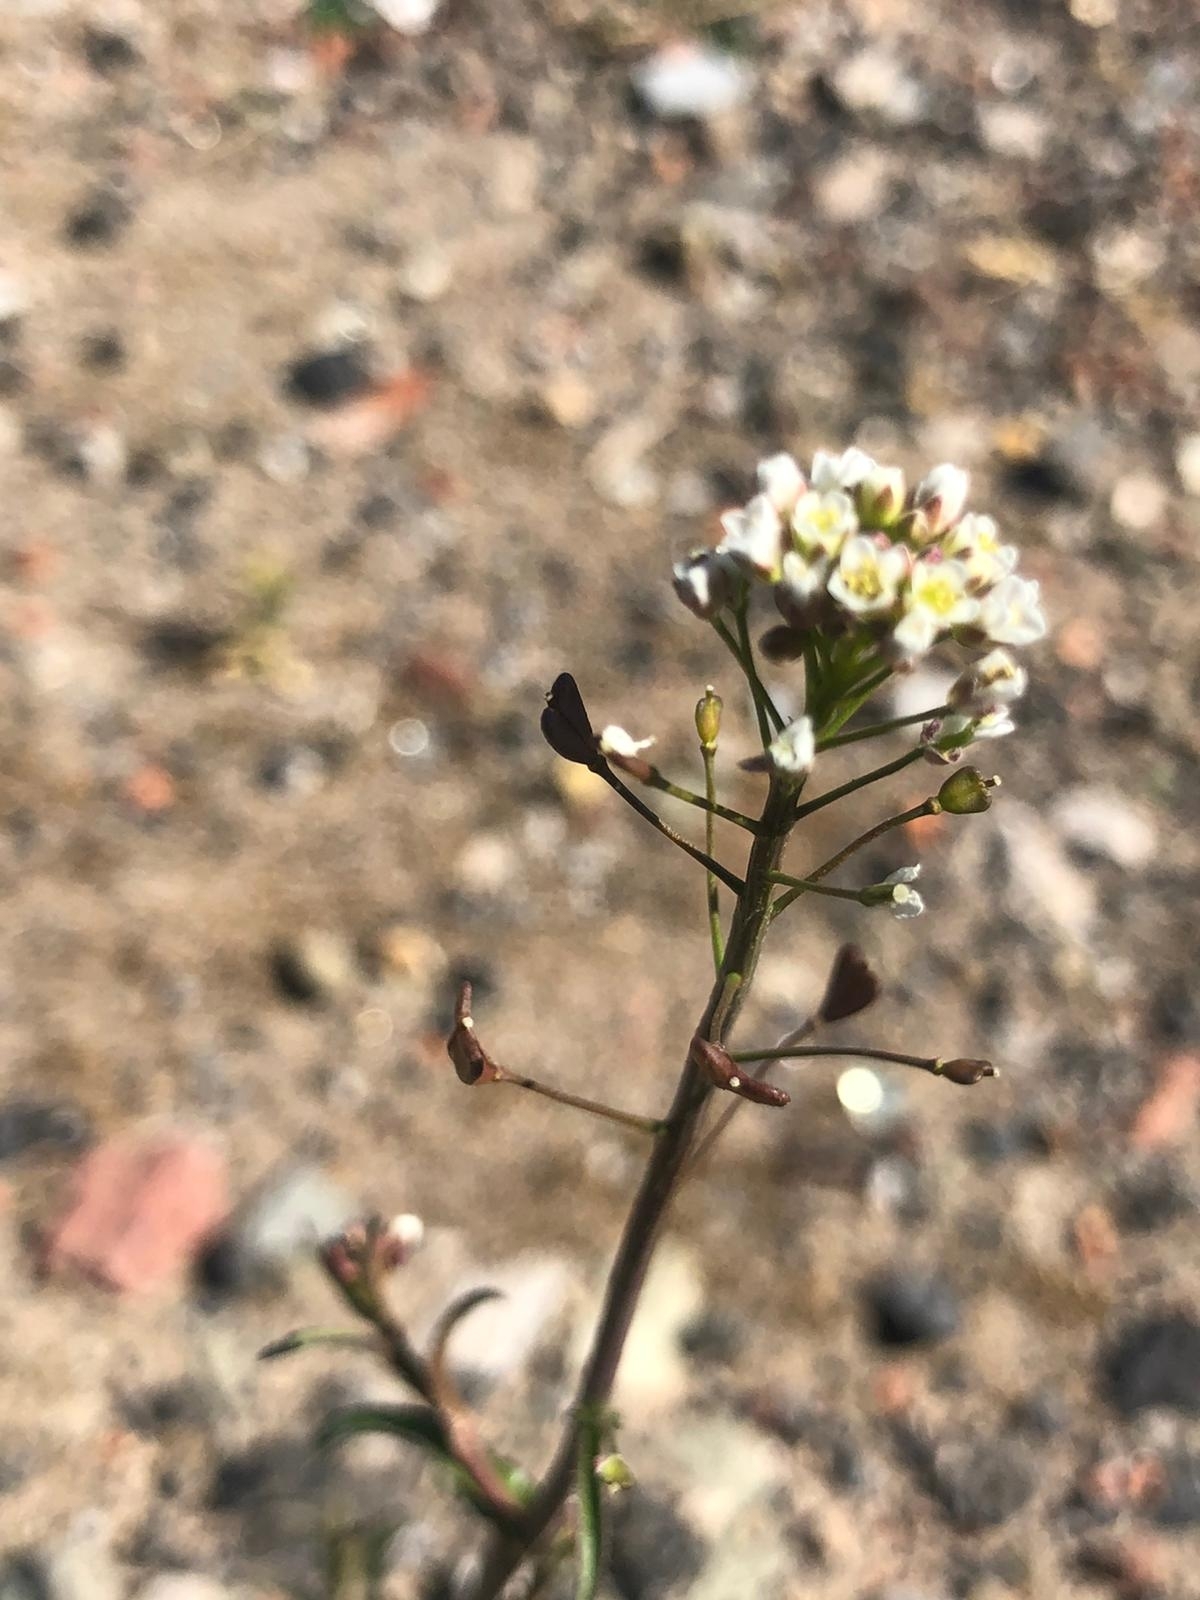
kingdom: Plantae
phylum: Tracheophyta
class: Magnoliopsida
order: Brassicales
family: Brassicaceae
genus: Capsella
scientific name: Capsella bursa-pastoris
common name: Shepherd's purse
